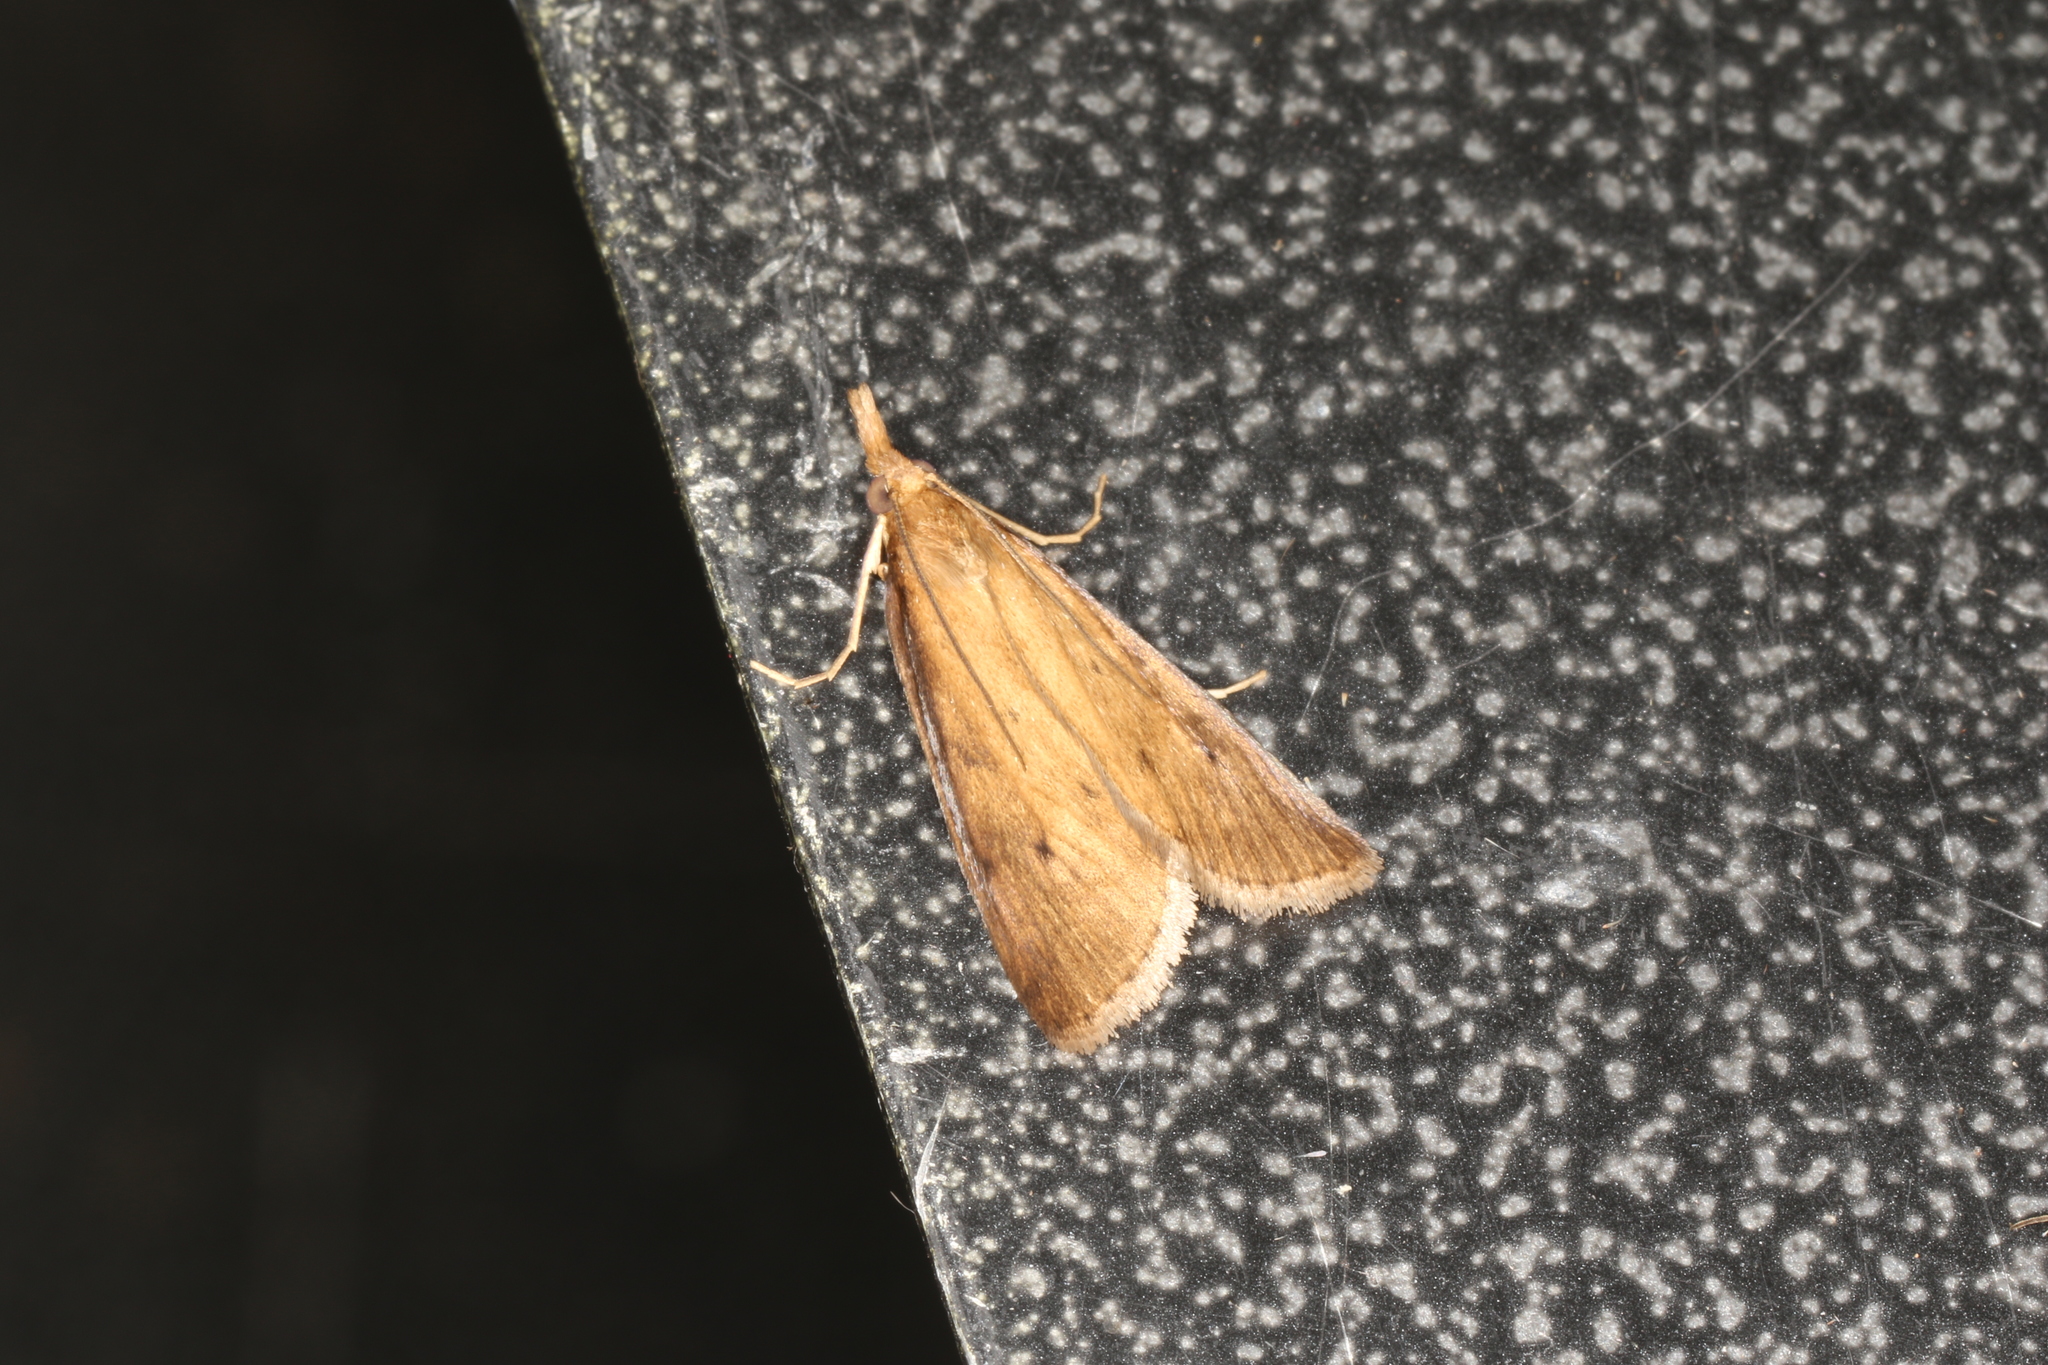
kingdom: Animalia
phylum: Arthropoda
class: Insecta
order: Lepidoptera
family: Crambidae
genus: Calamotropha
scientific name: Calamotropha leptogrammellus
